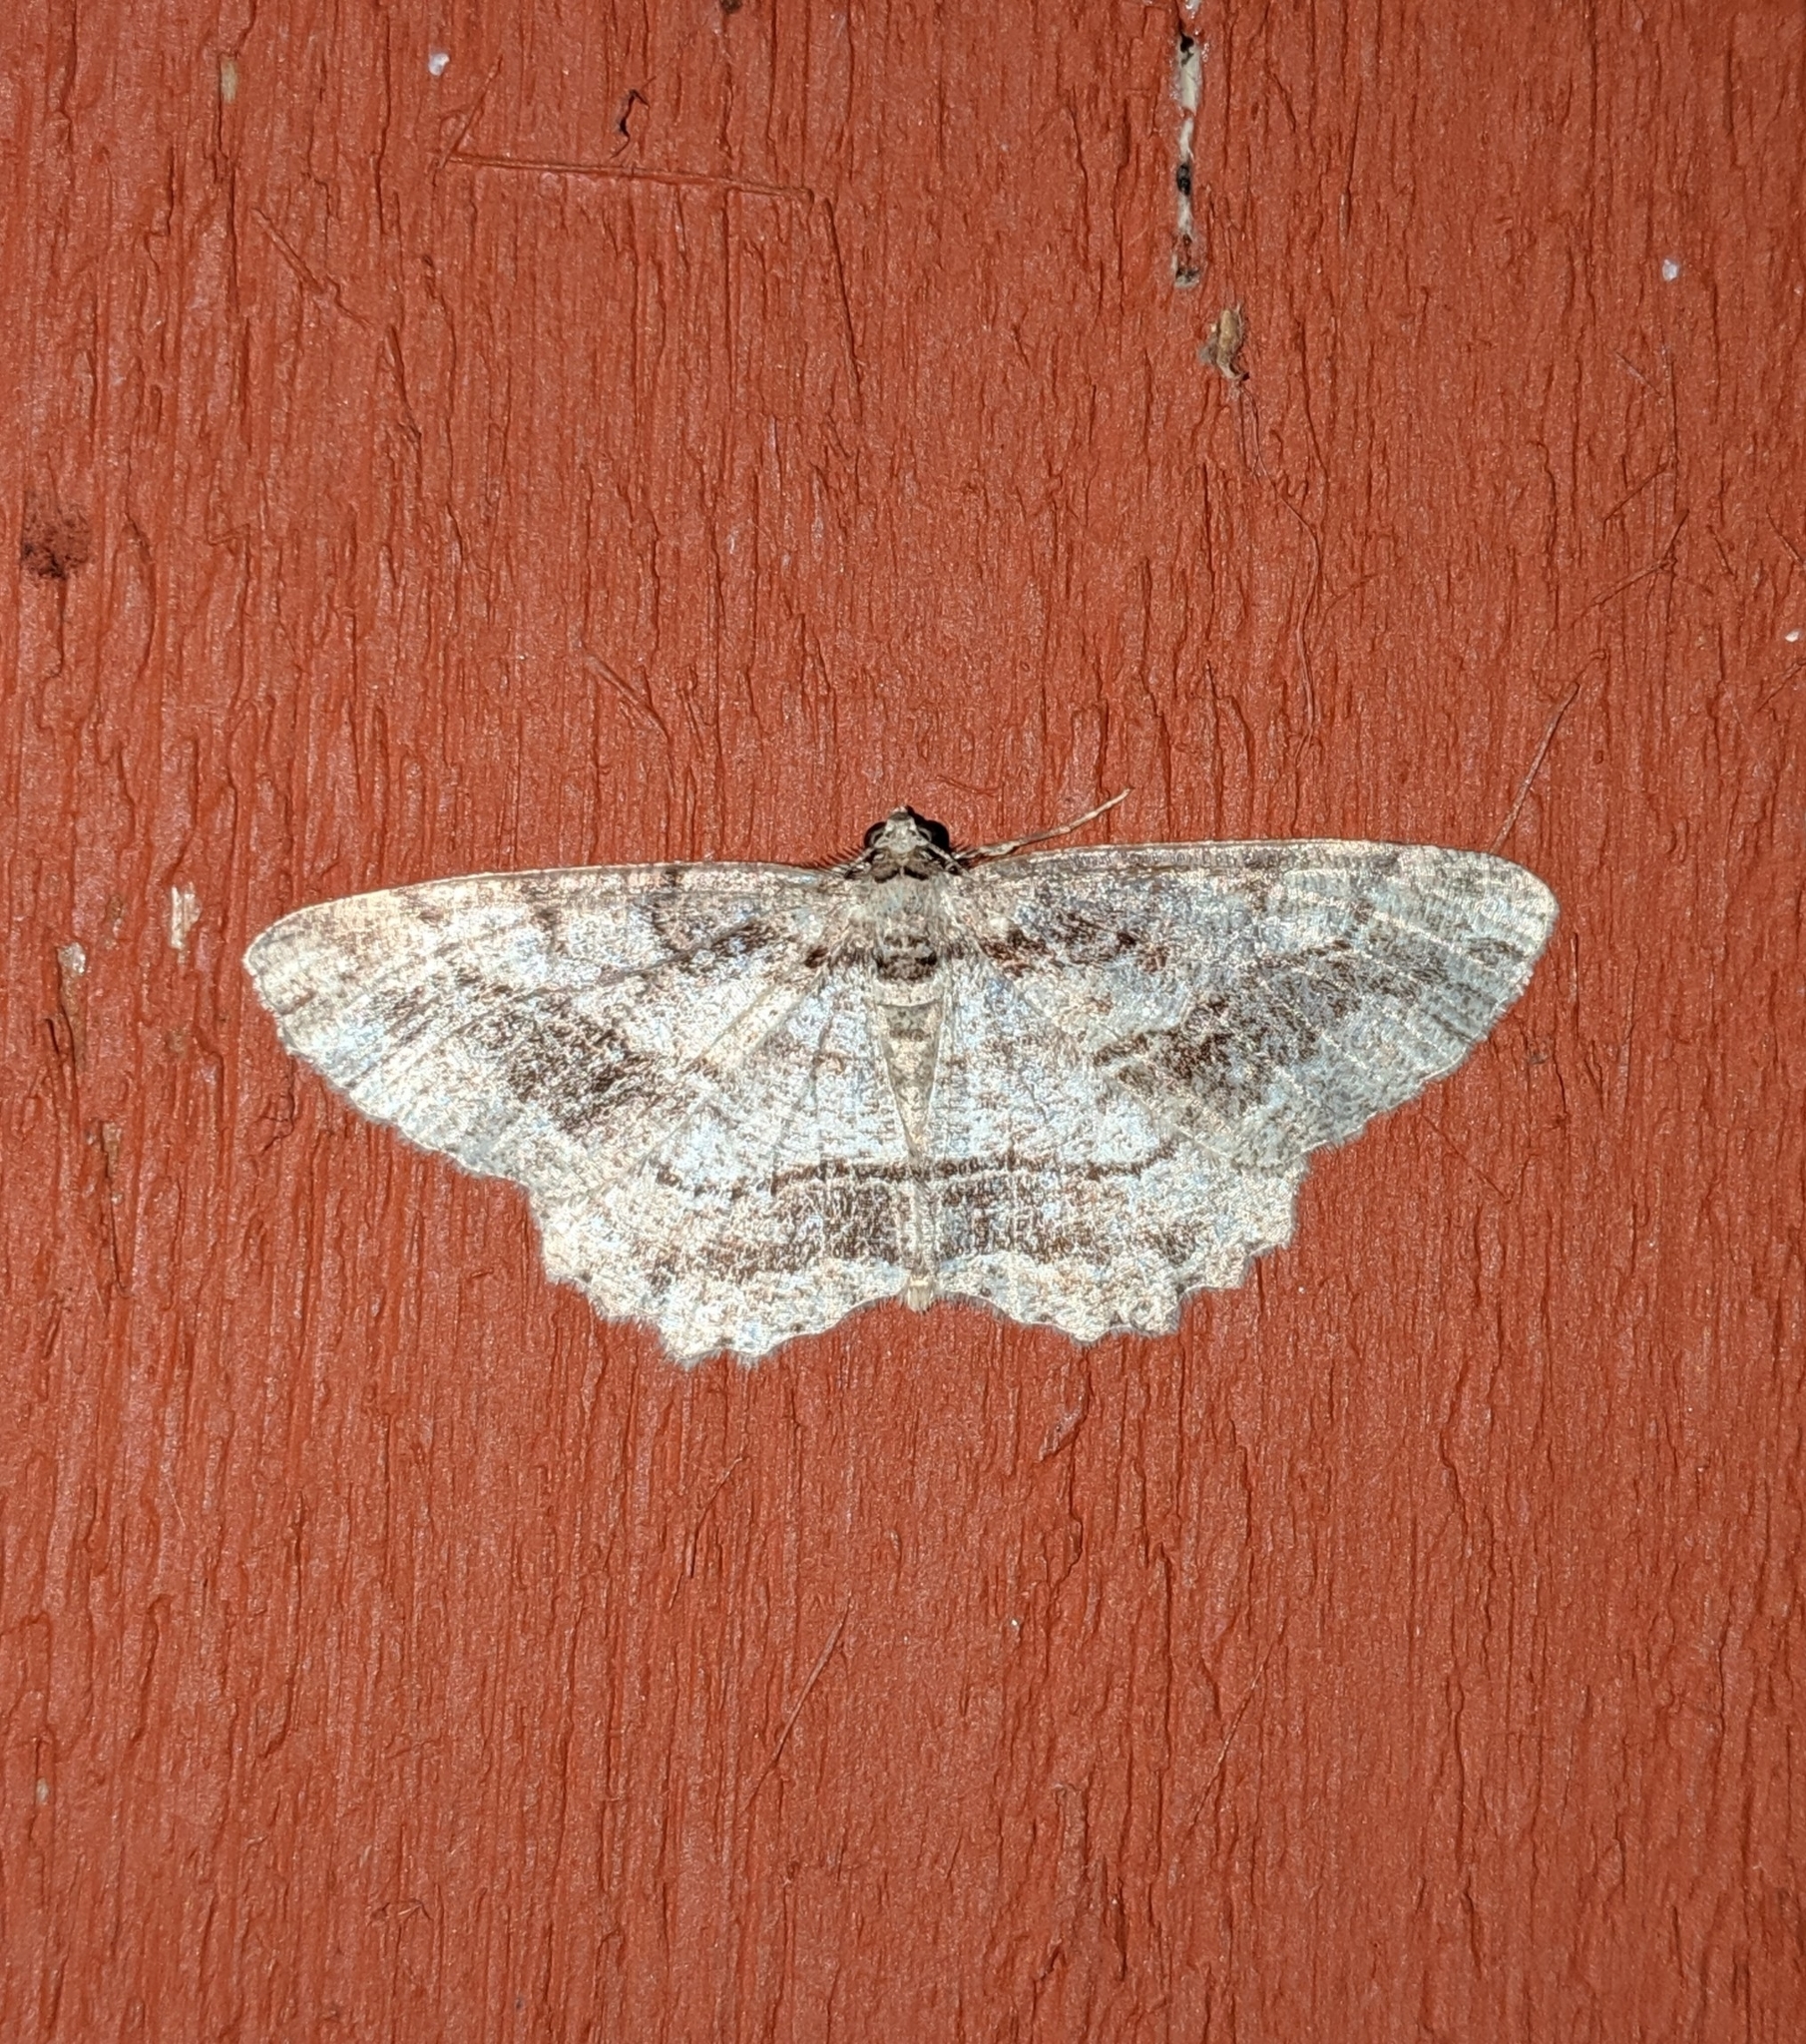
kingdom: Animalia
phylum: Arthropoda
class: Insecta
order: Lepidoptera
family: Geometridae
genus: Neoalcis
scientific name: Neoalcis californiaria
